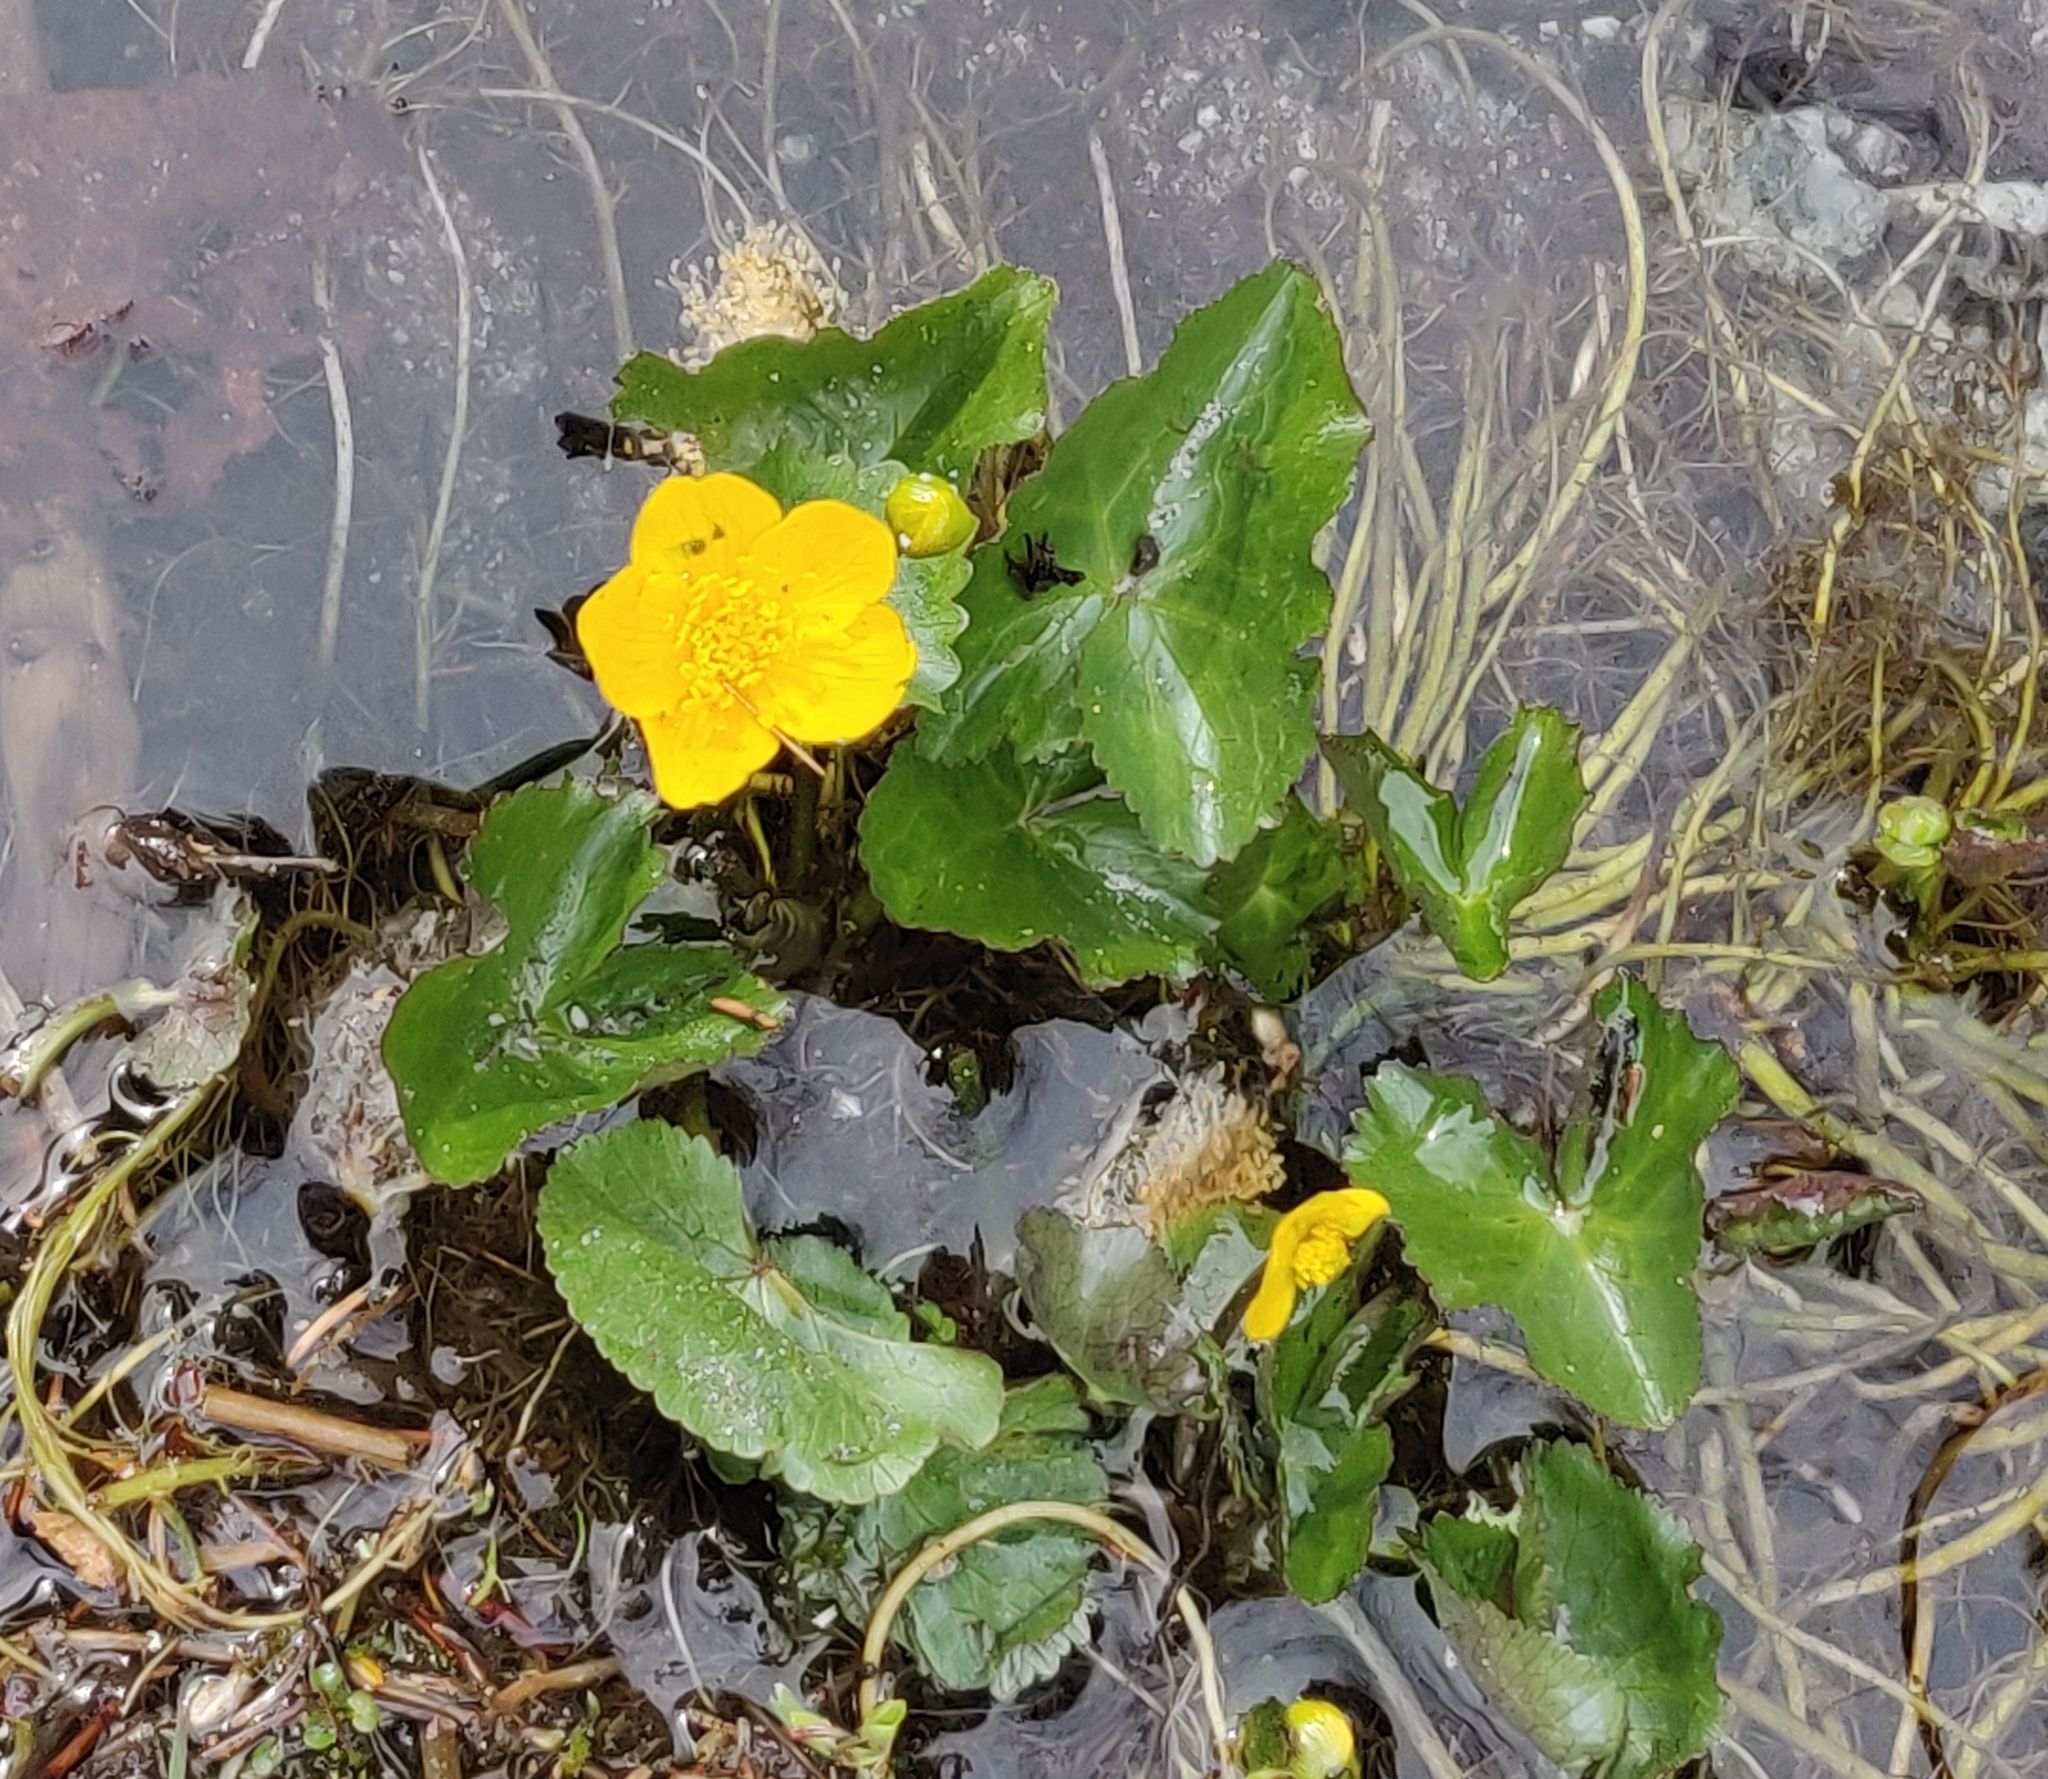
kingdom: Plantae
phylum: Tracheophyta
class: Magnoliopsida
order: Ranunculales
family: Ranunculaceae
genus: Caltha
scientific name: Caltha palustris
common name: Marsh marigold
